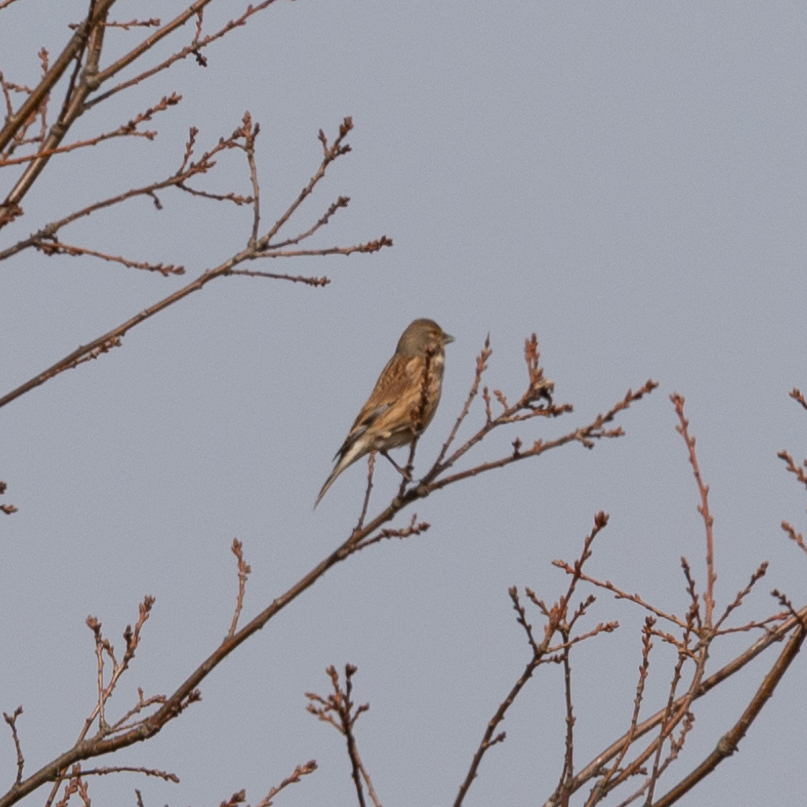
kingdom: Animalia
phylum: Chordata
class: Aves
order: Passeriformes
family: Fringillidae
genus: Linaria
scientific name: Linaria cannabina
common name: Common linnet
